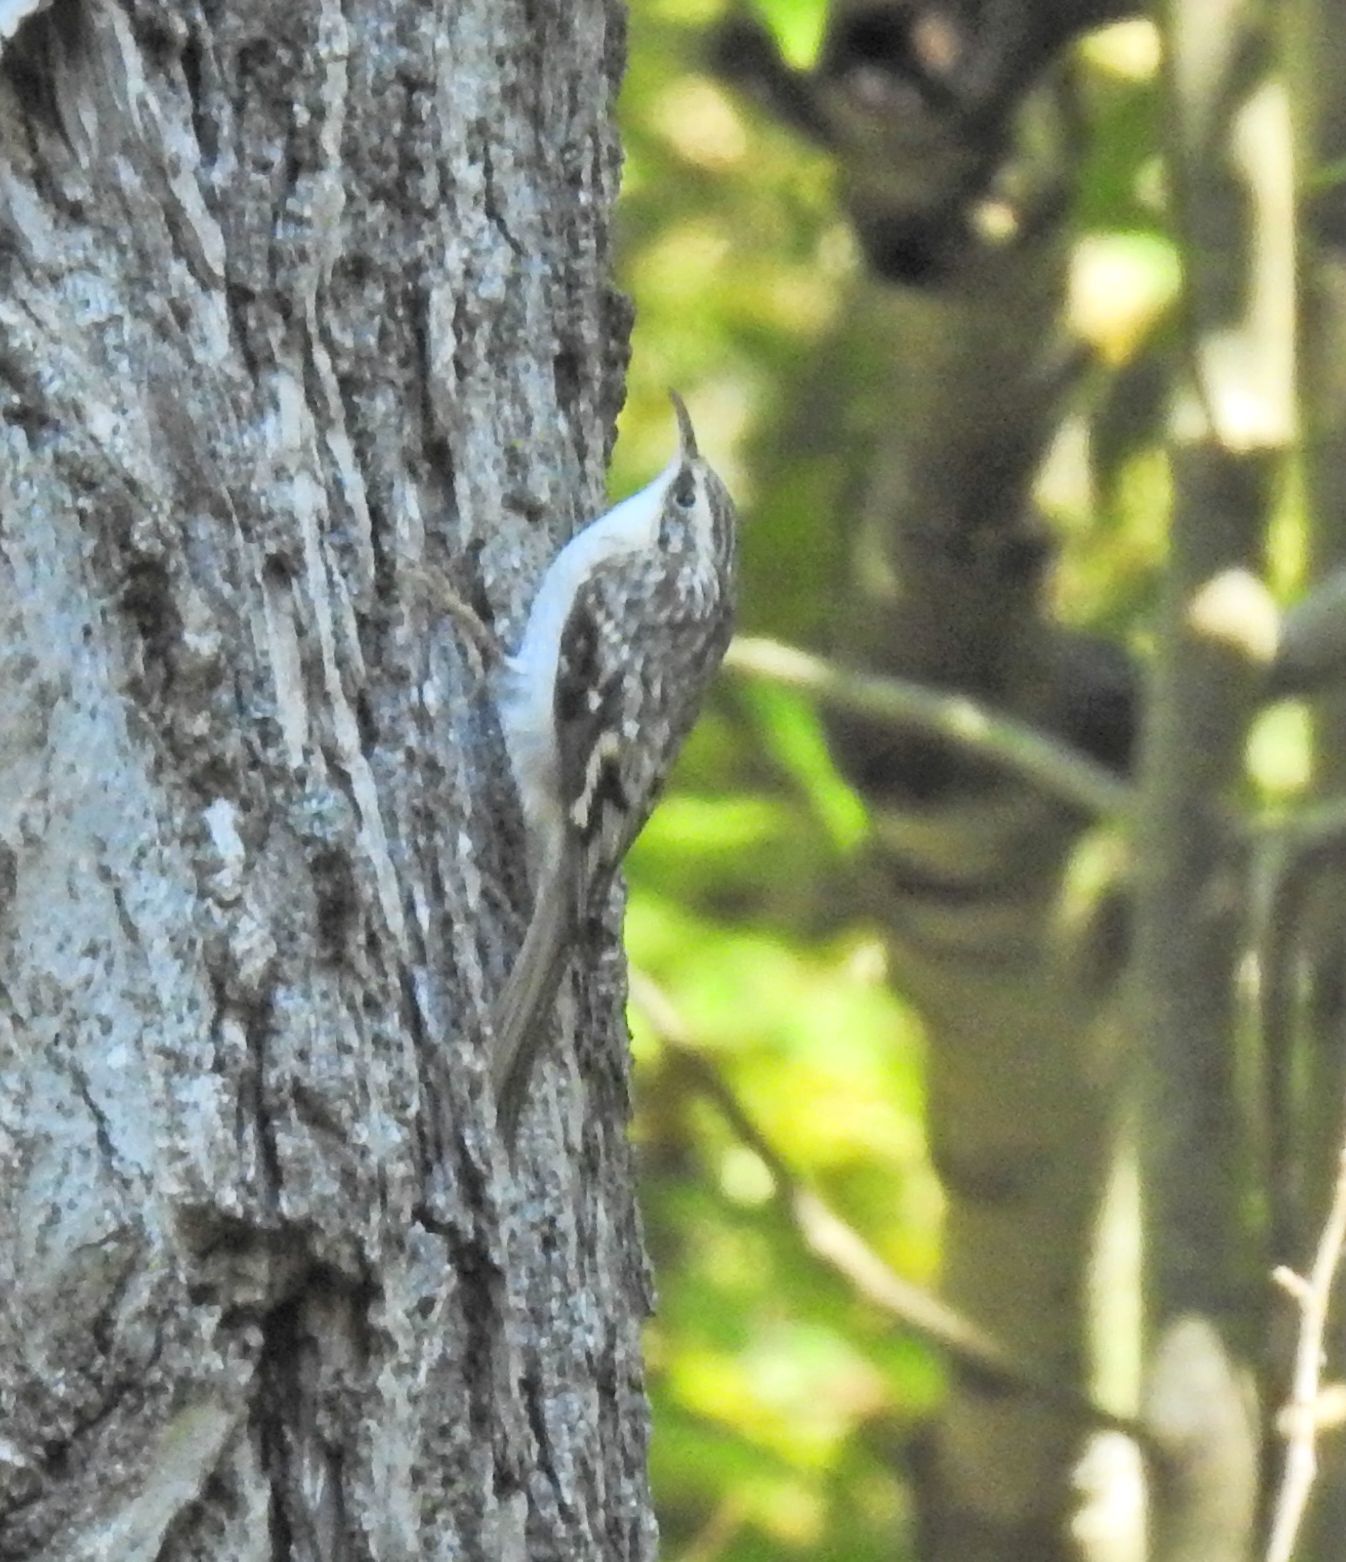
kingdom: Animalia
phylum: Chordata
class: Aves
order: Passeriformes
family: Certhiidae
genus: Certhia
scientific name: Certhia americana
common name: Brown creeper
